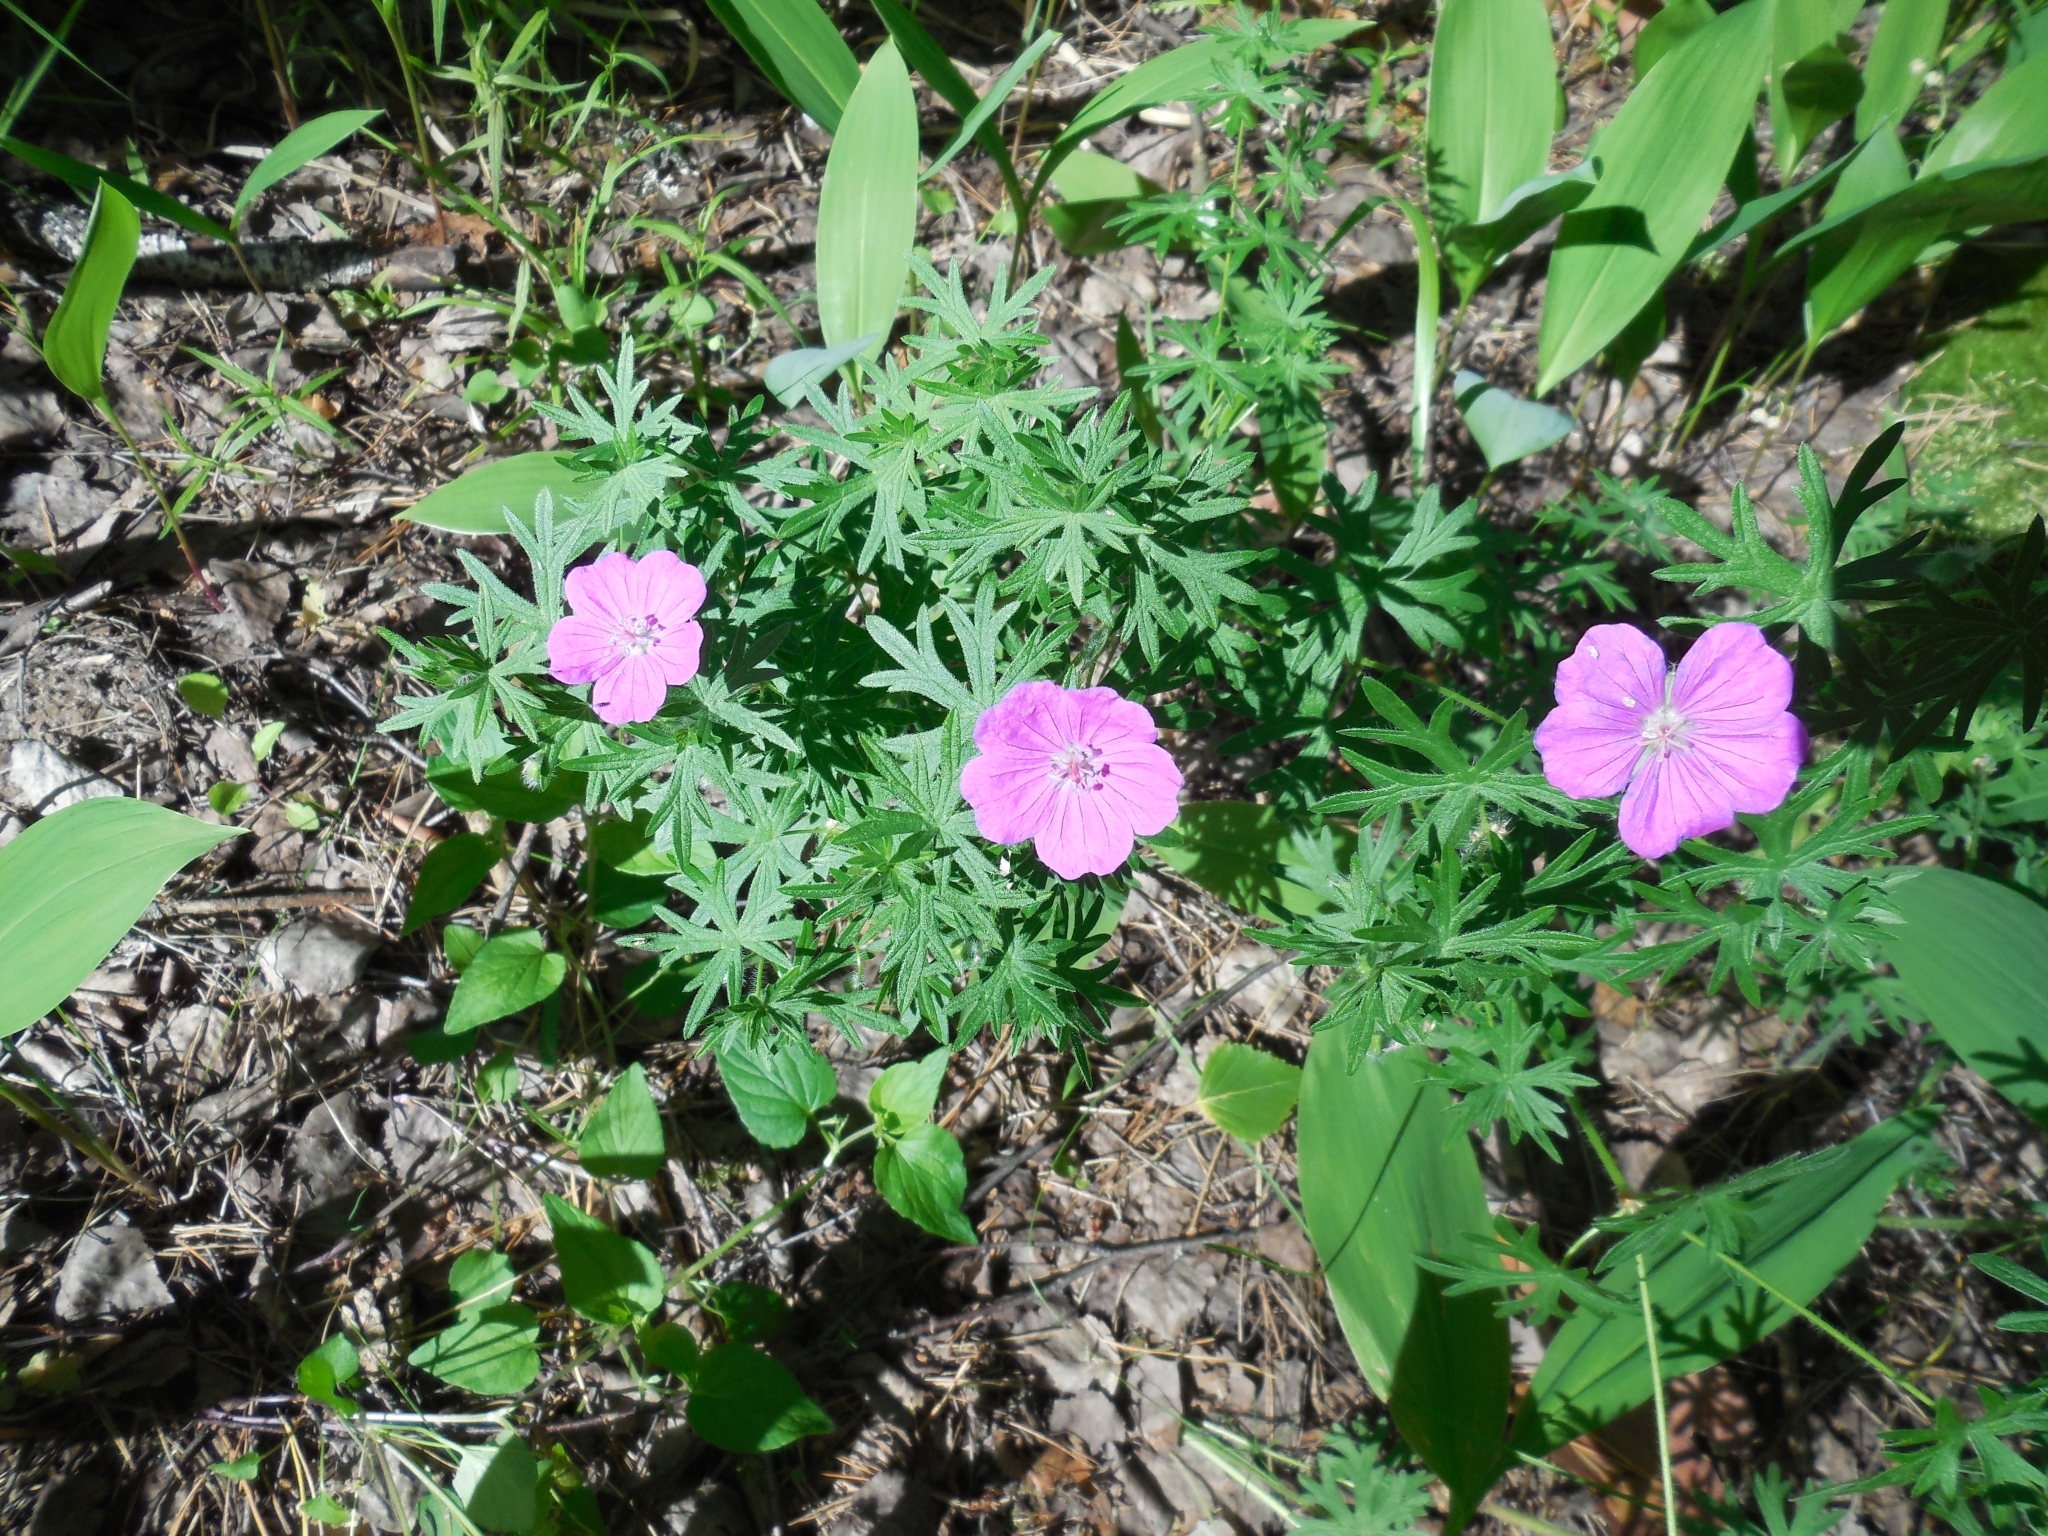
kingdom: Plantae
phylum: Tracheophyta
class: Magnoliopsida
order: Geraniales
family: Geraniaceae
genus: Geranium
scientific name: Geranium sanguineum
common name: Bloody crane's-bill
